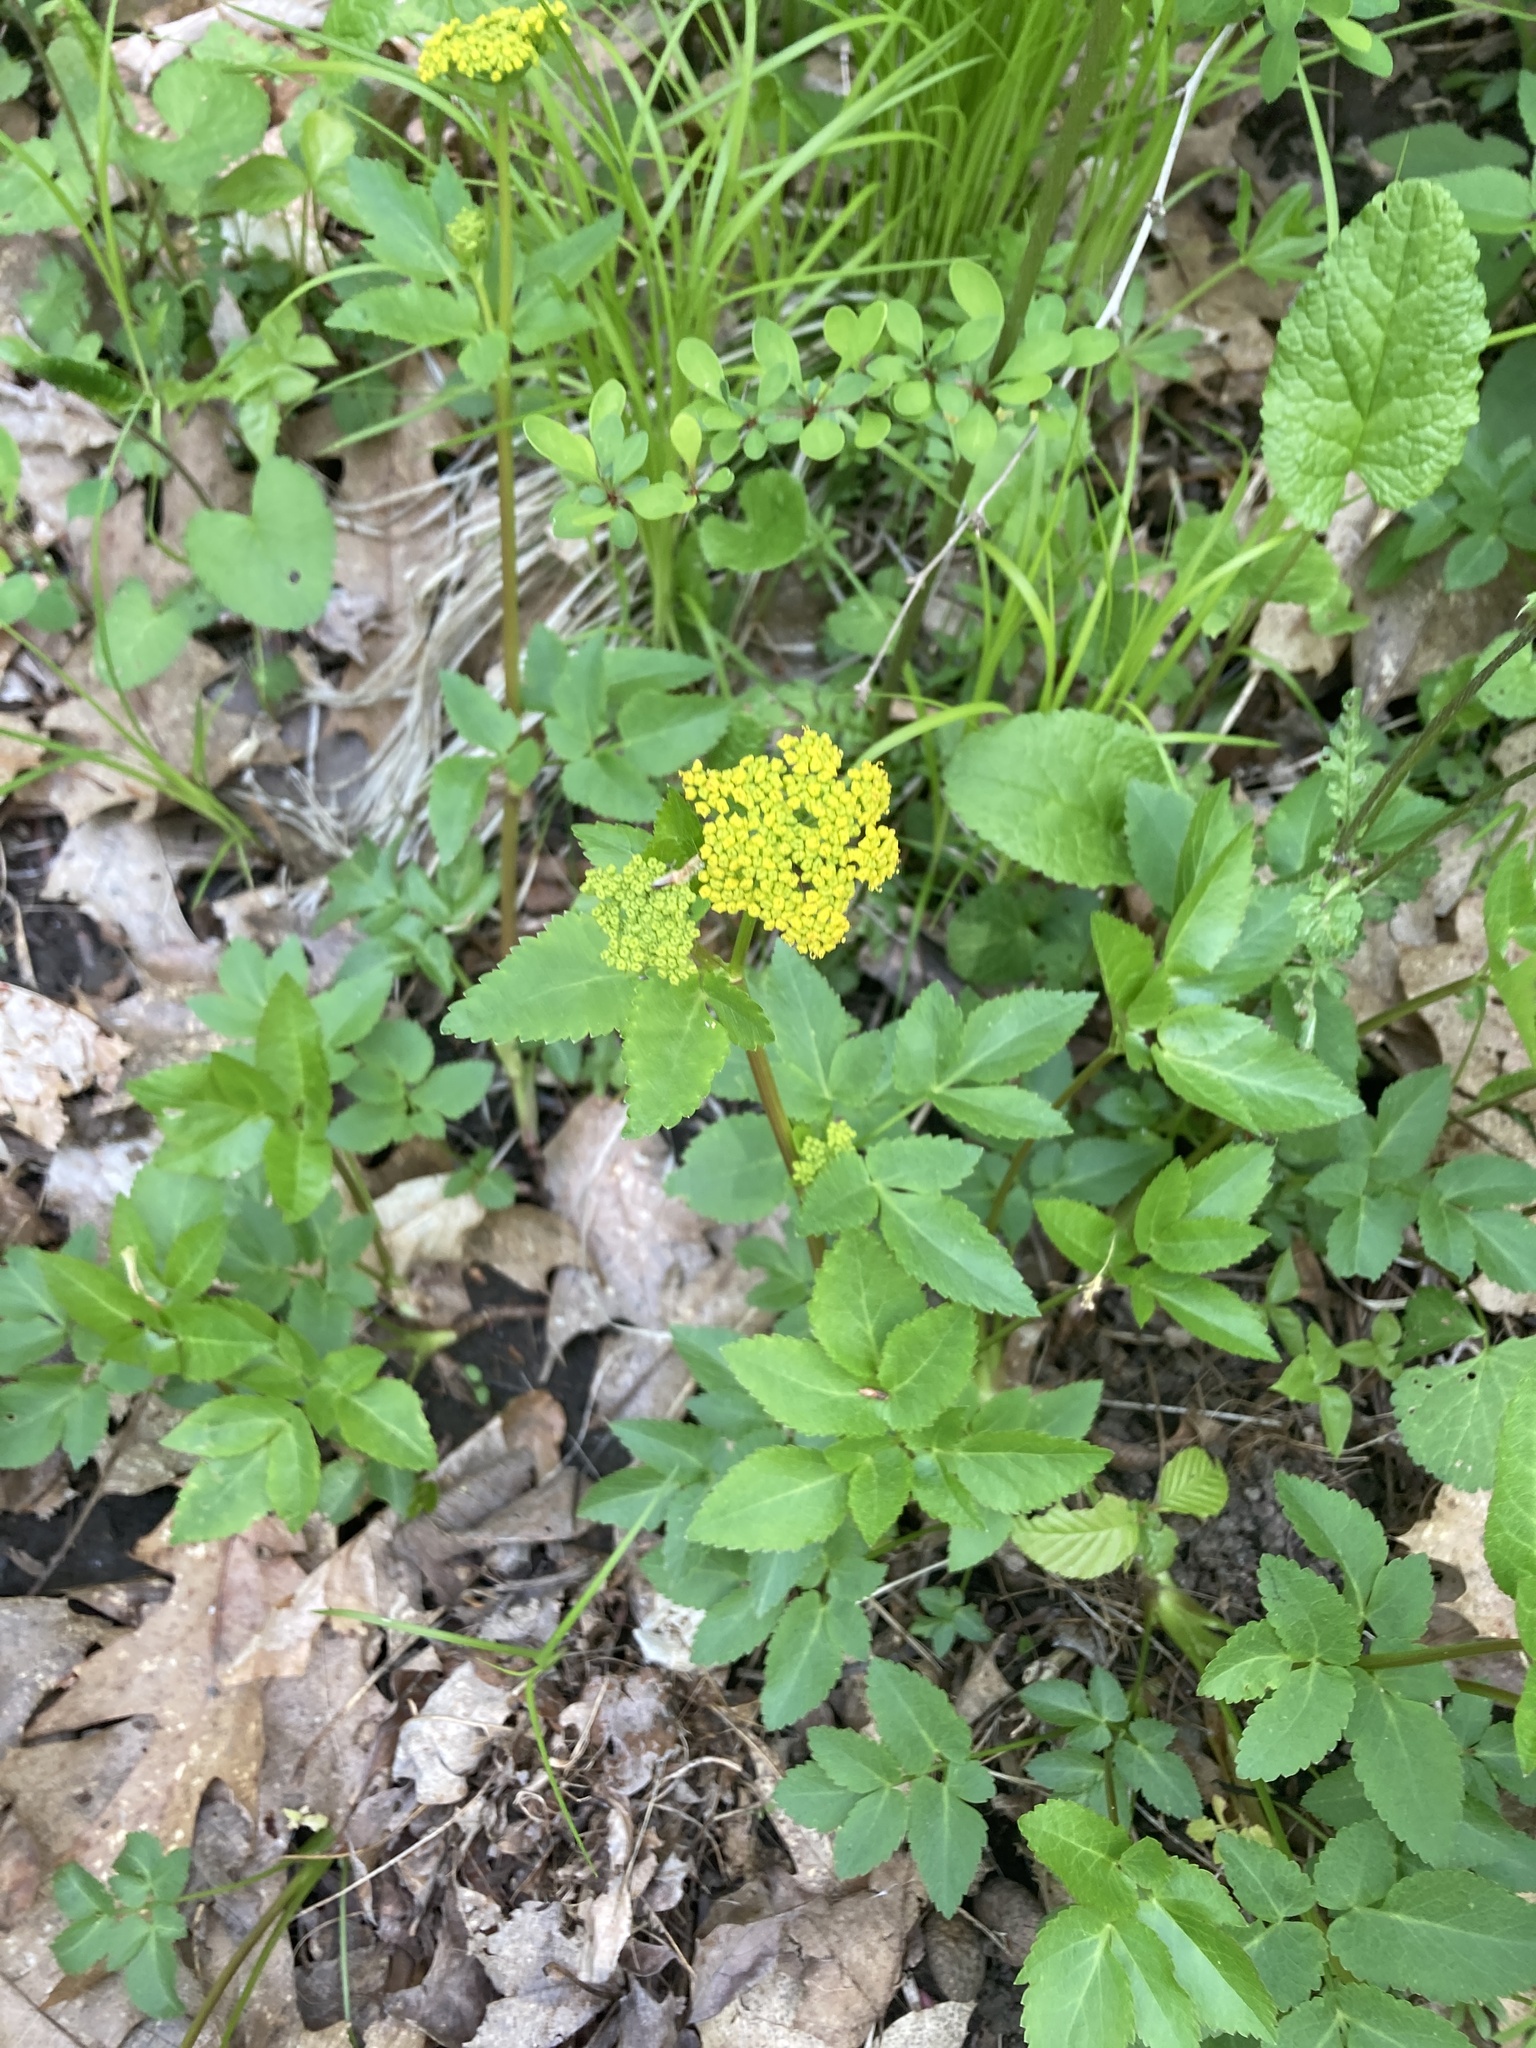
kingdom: Plantae
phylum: Tracheophyta
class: Magnoliopsida
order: Apiales
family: Apiaceae
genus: Zizia
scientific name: Zizia aurea
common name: Golden alexanders
